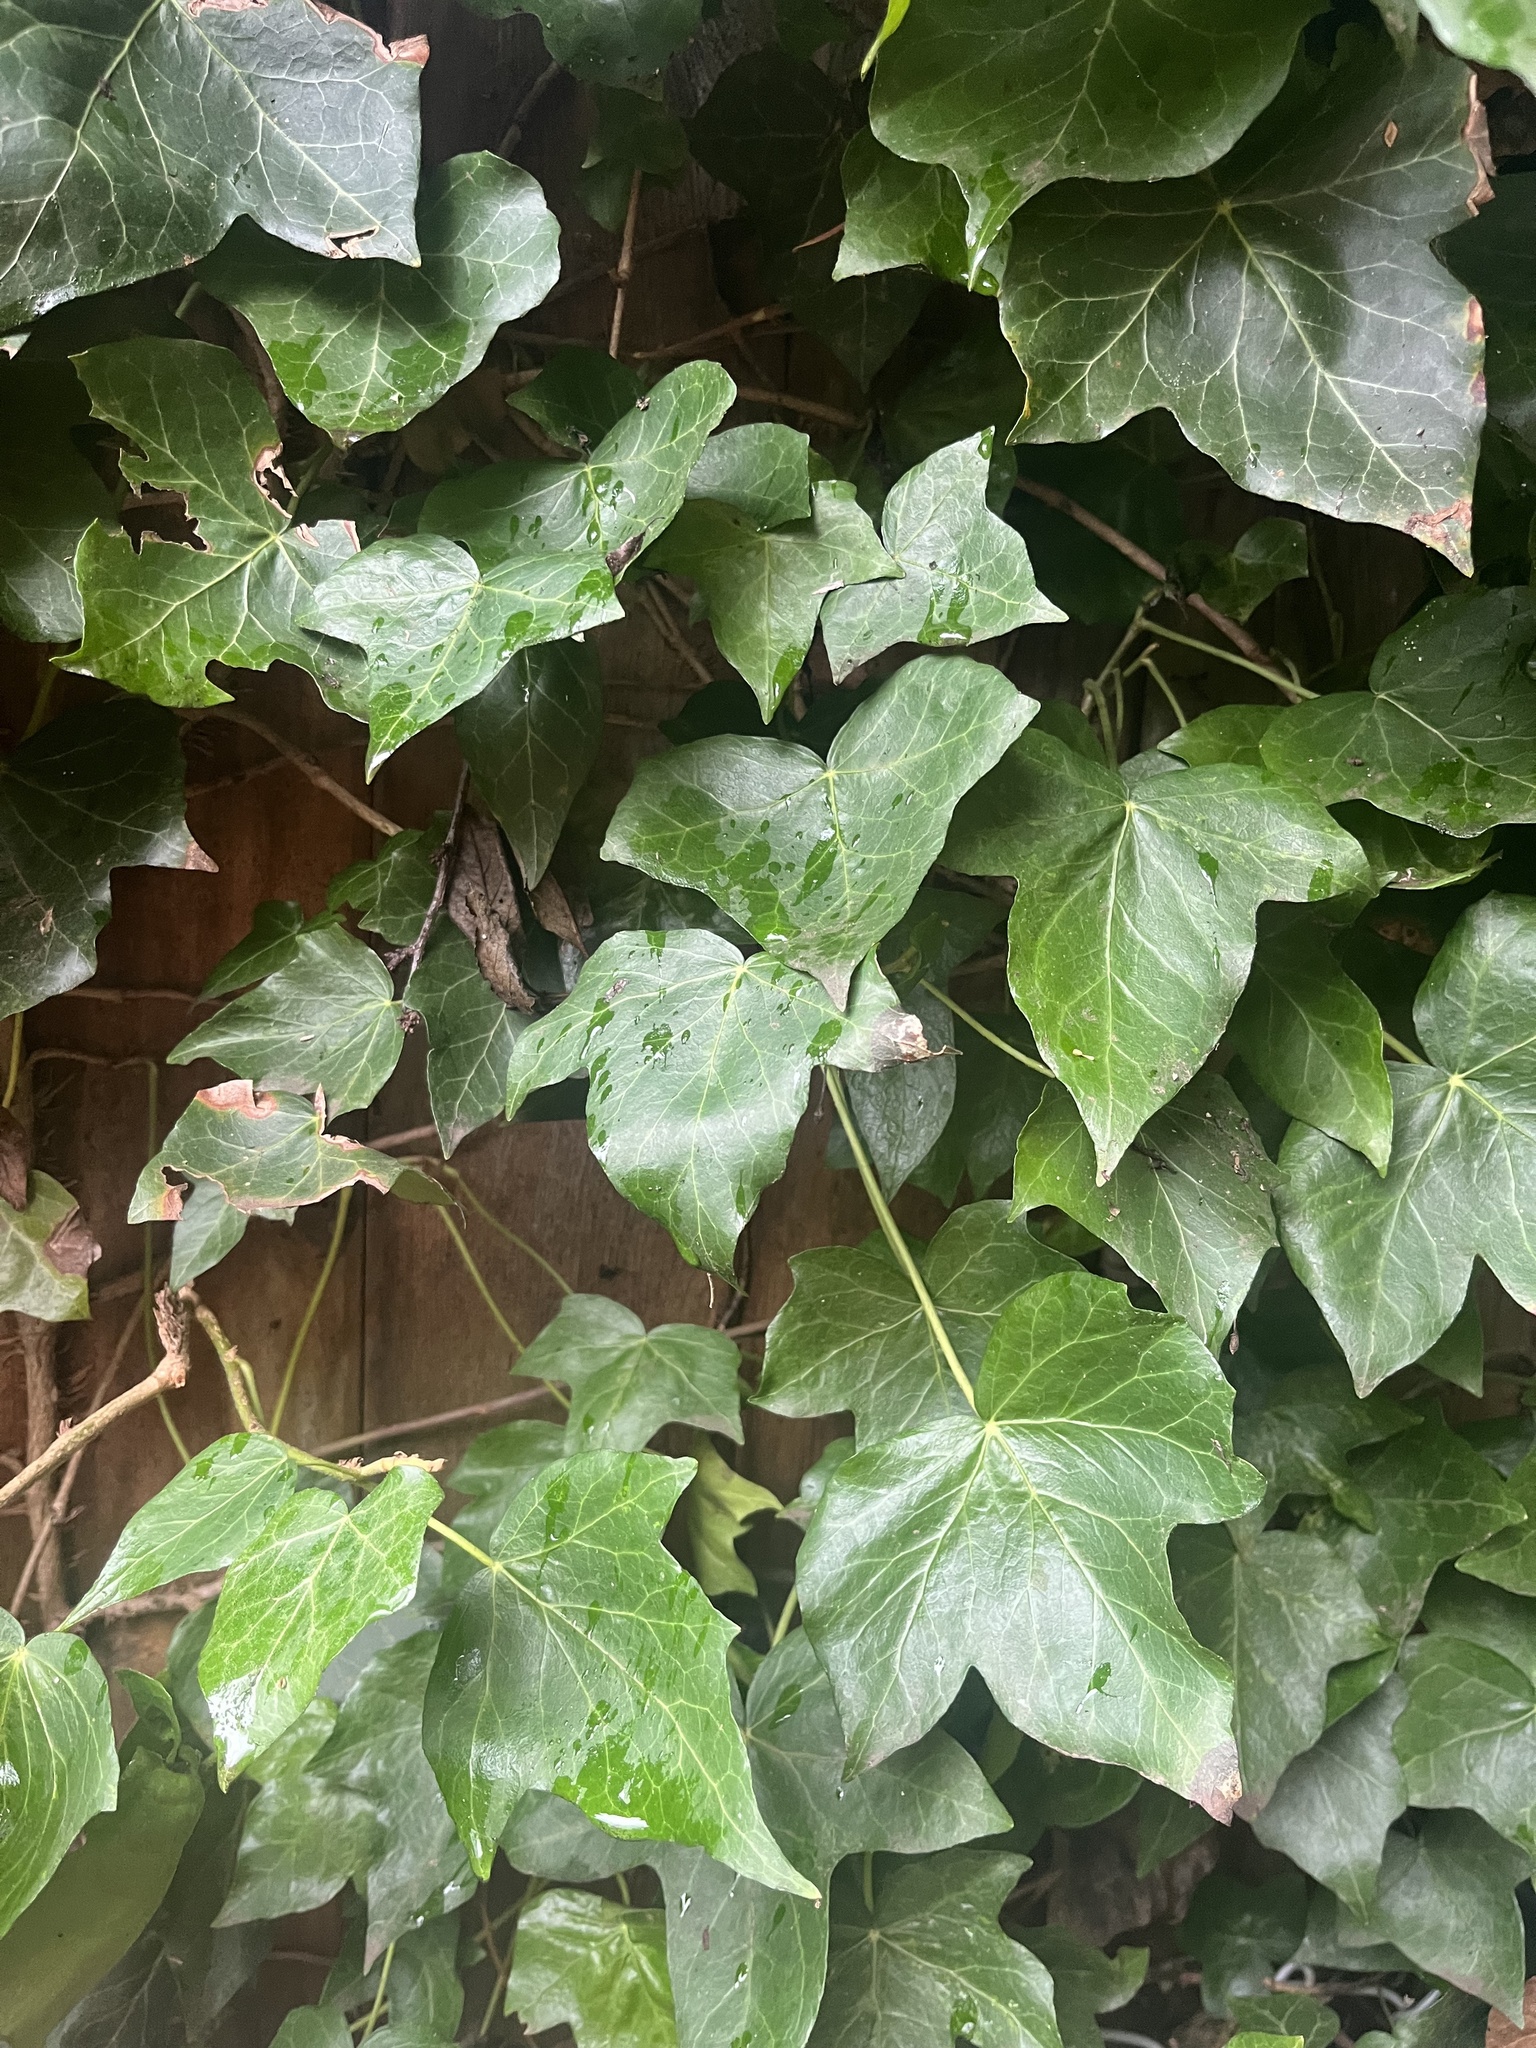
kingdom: Plantae
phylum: Tracheophyta
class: Magnoliopsida
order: Apiales
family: Araliaceae
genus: Hedera
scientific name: Hedera helix
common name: Ivy
